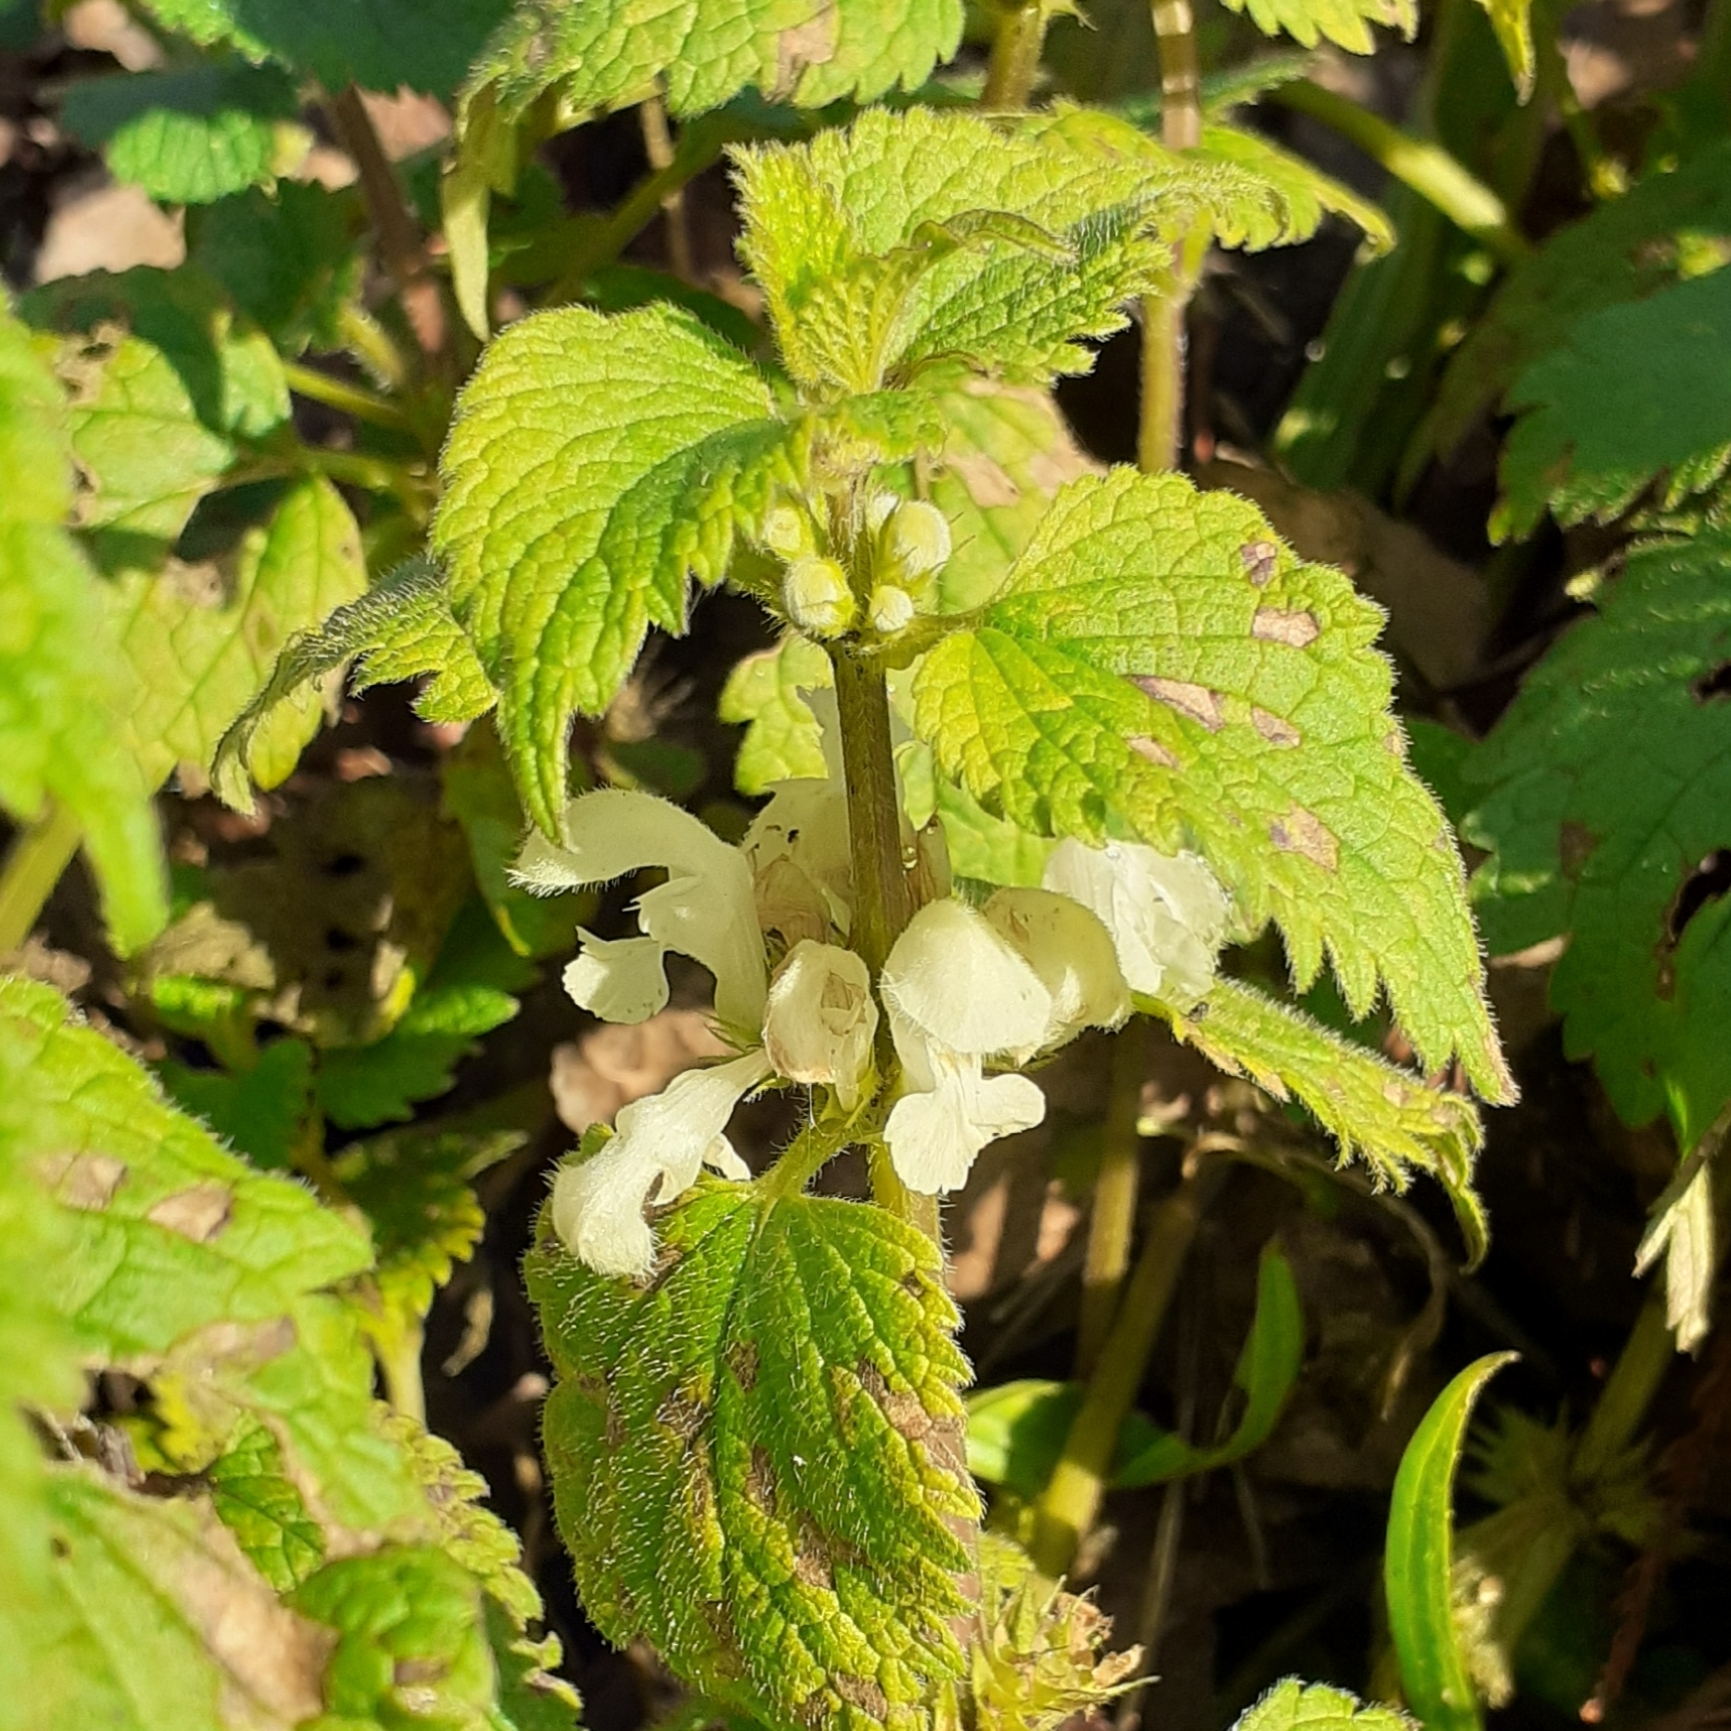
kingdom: Plantae
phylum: Tracheophyta
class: Magnoliopsida
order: Lamiales
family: Lamiaceae
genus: Lamium
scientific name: Lamium album
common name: White dead-nettle
